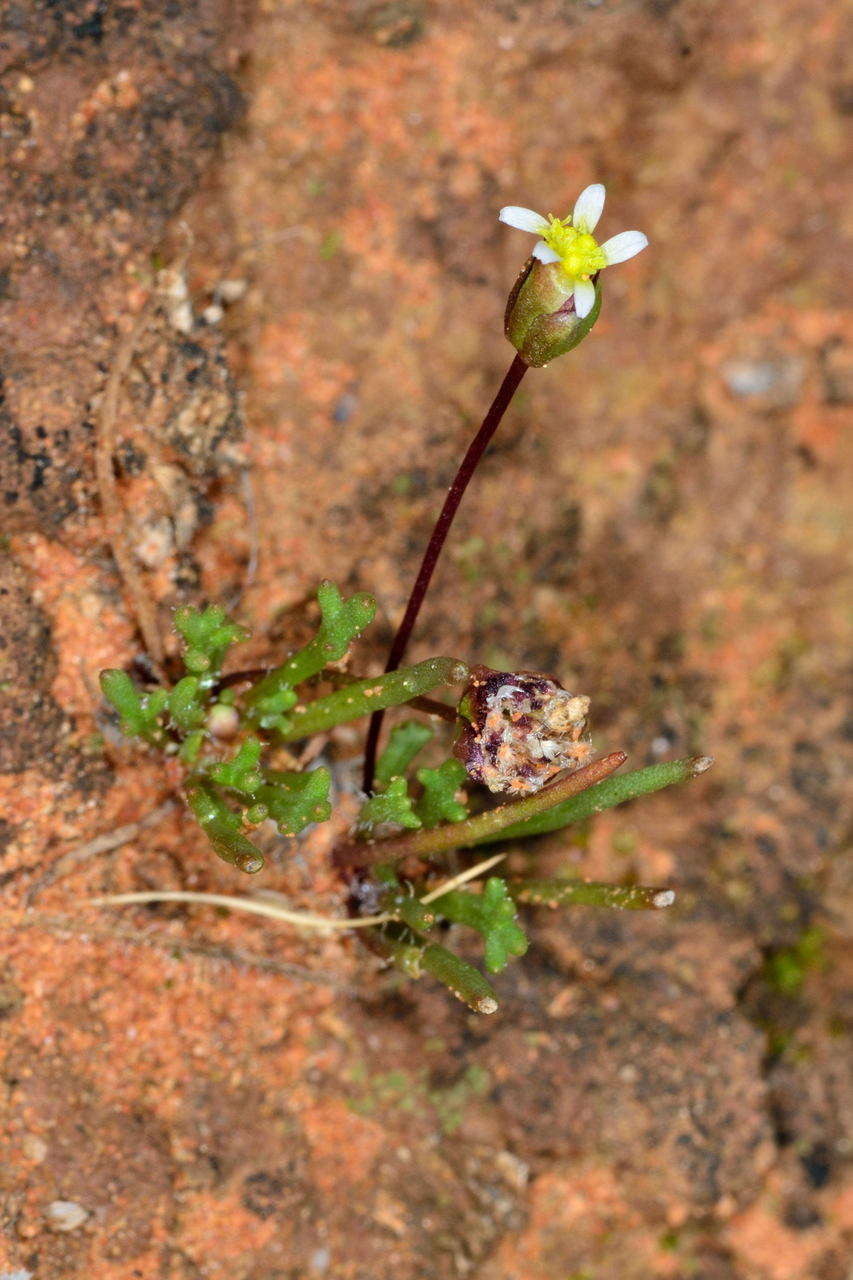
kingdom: Plantae
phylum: Tracheophyta
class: Magnoliopsida
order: Asterales
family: Asteraceae
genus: Brachyscome
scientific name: Brachyscome lineariloba
